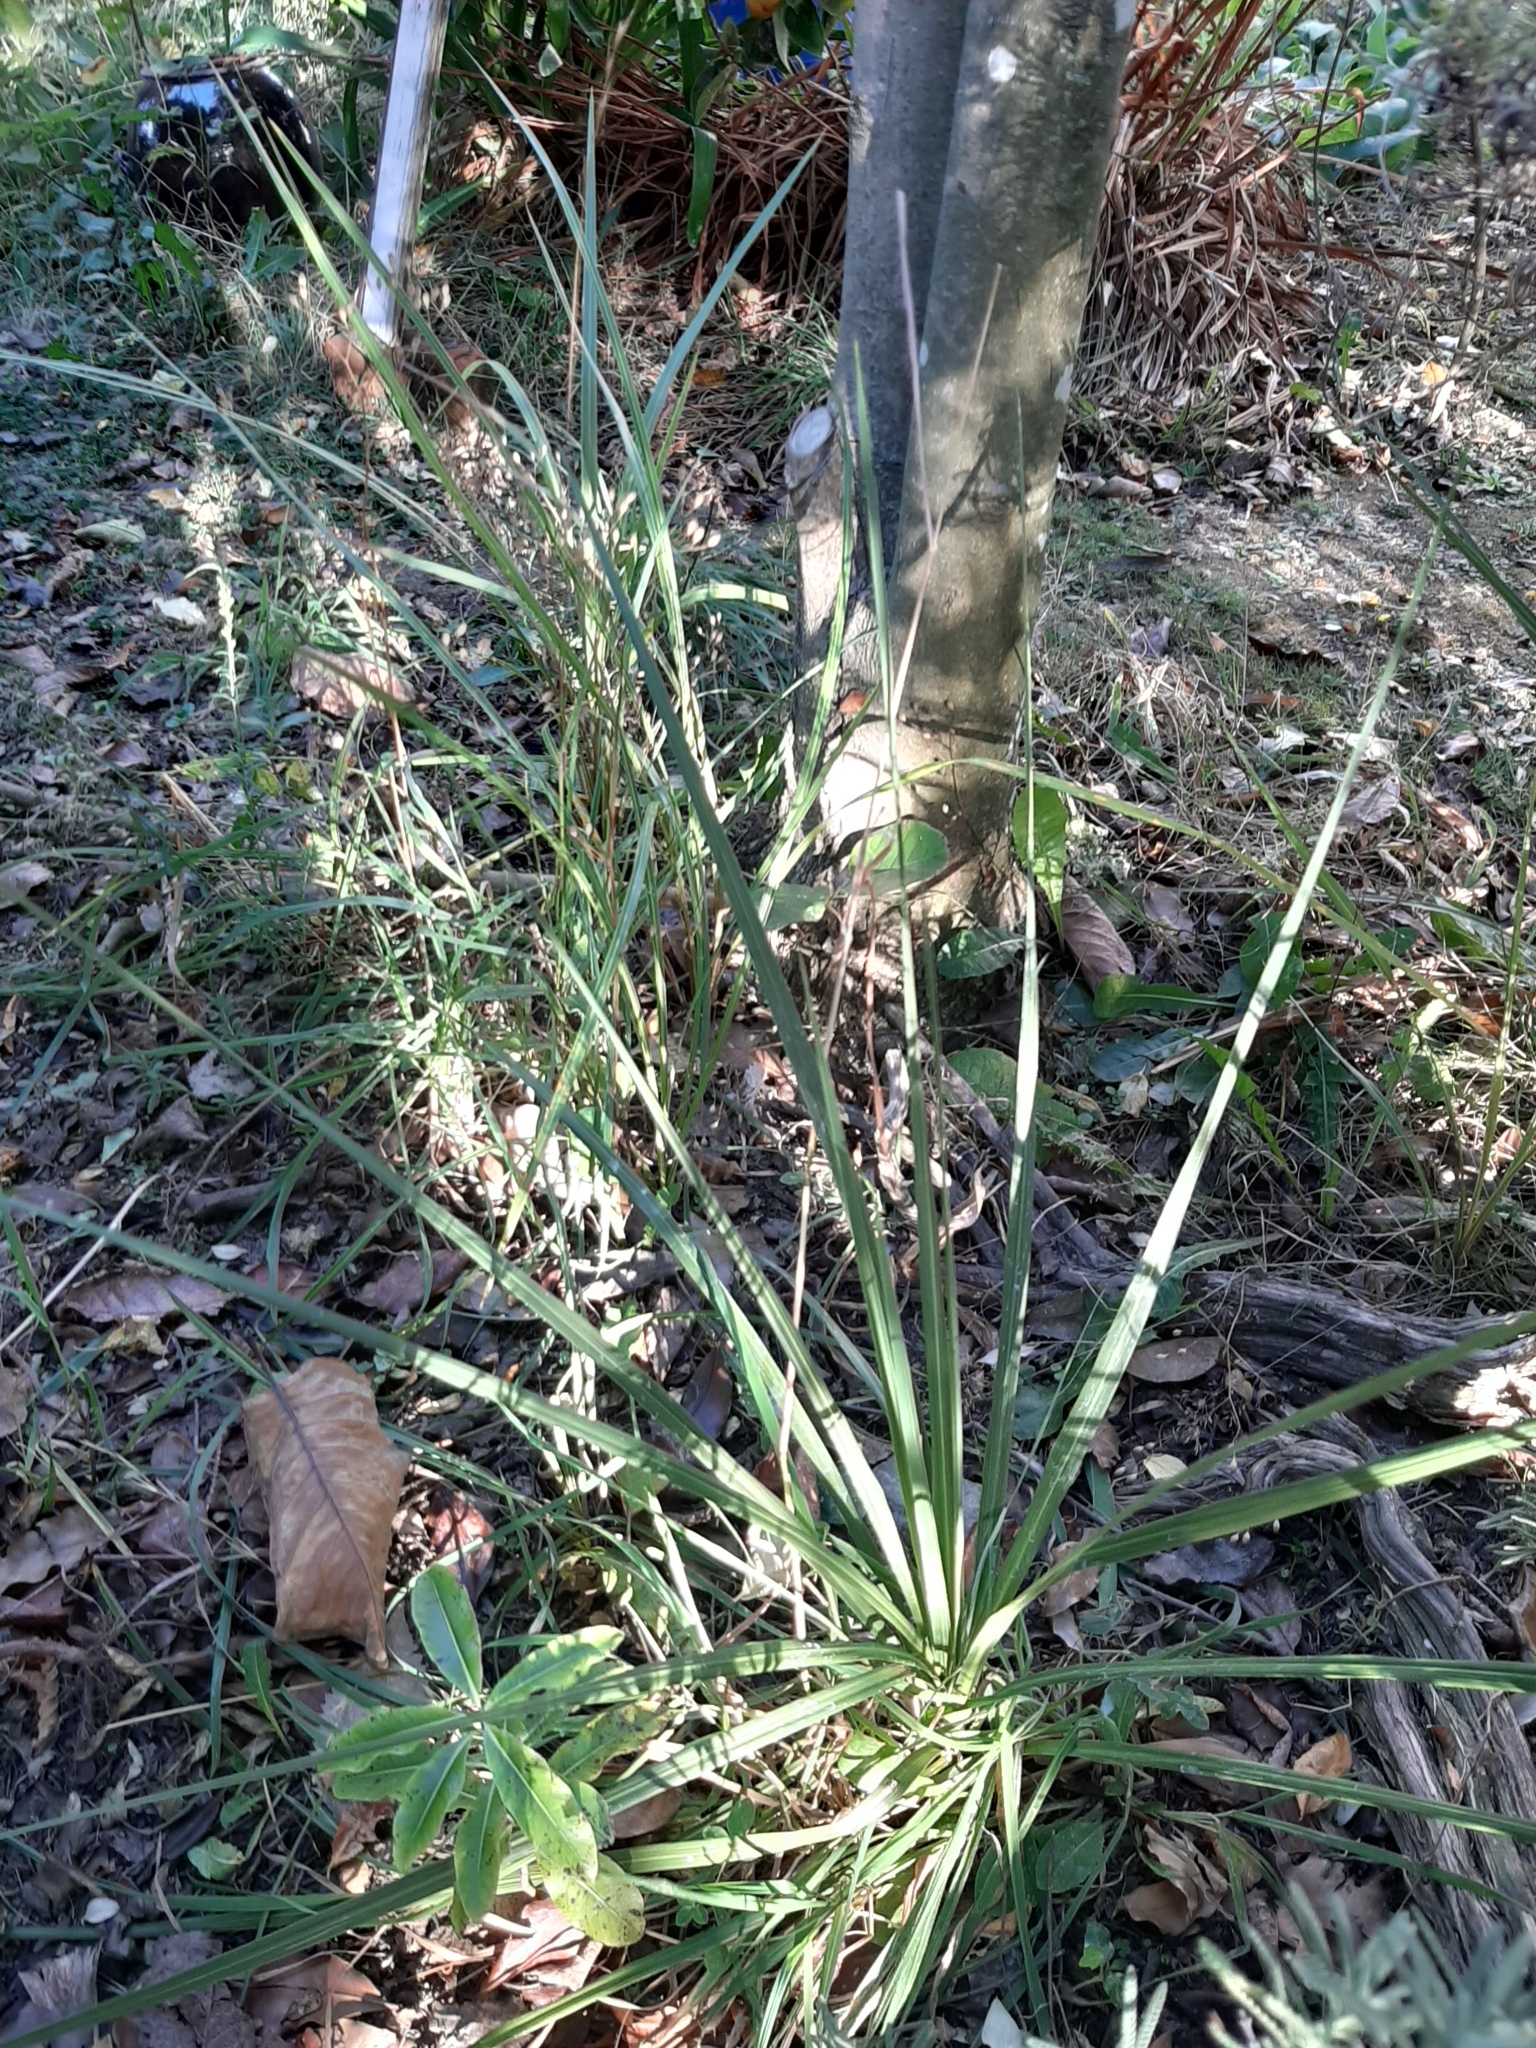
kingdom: Plantae
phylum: Tracheophyta
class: Liliopsida
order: Asparagales
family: Asparagaceae
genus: Cordyline
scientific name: Cordyline australis
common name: Cabbage-palm
